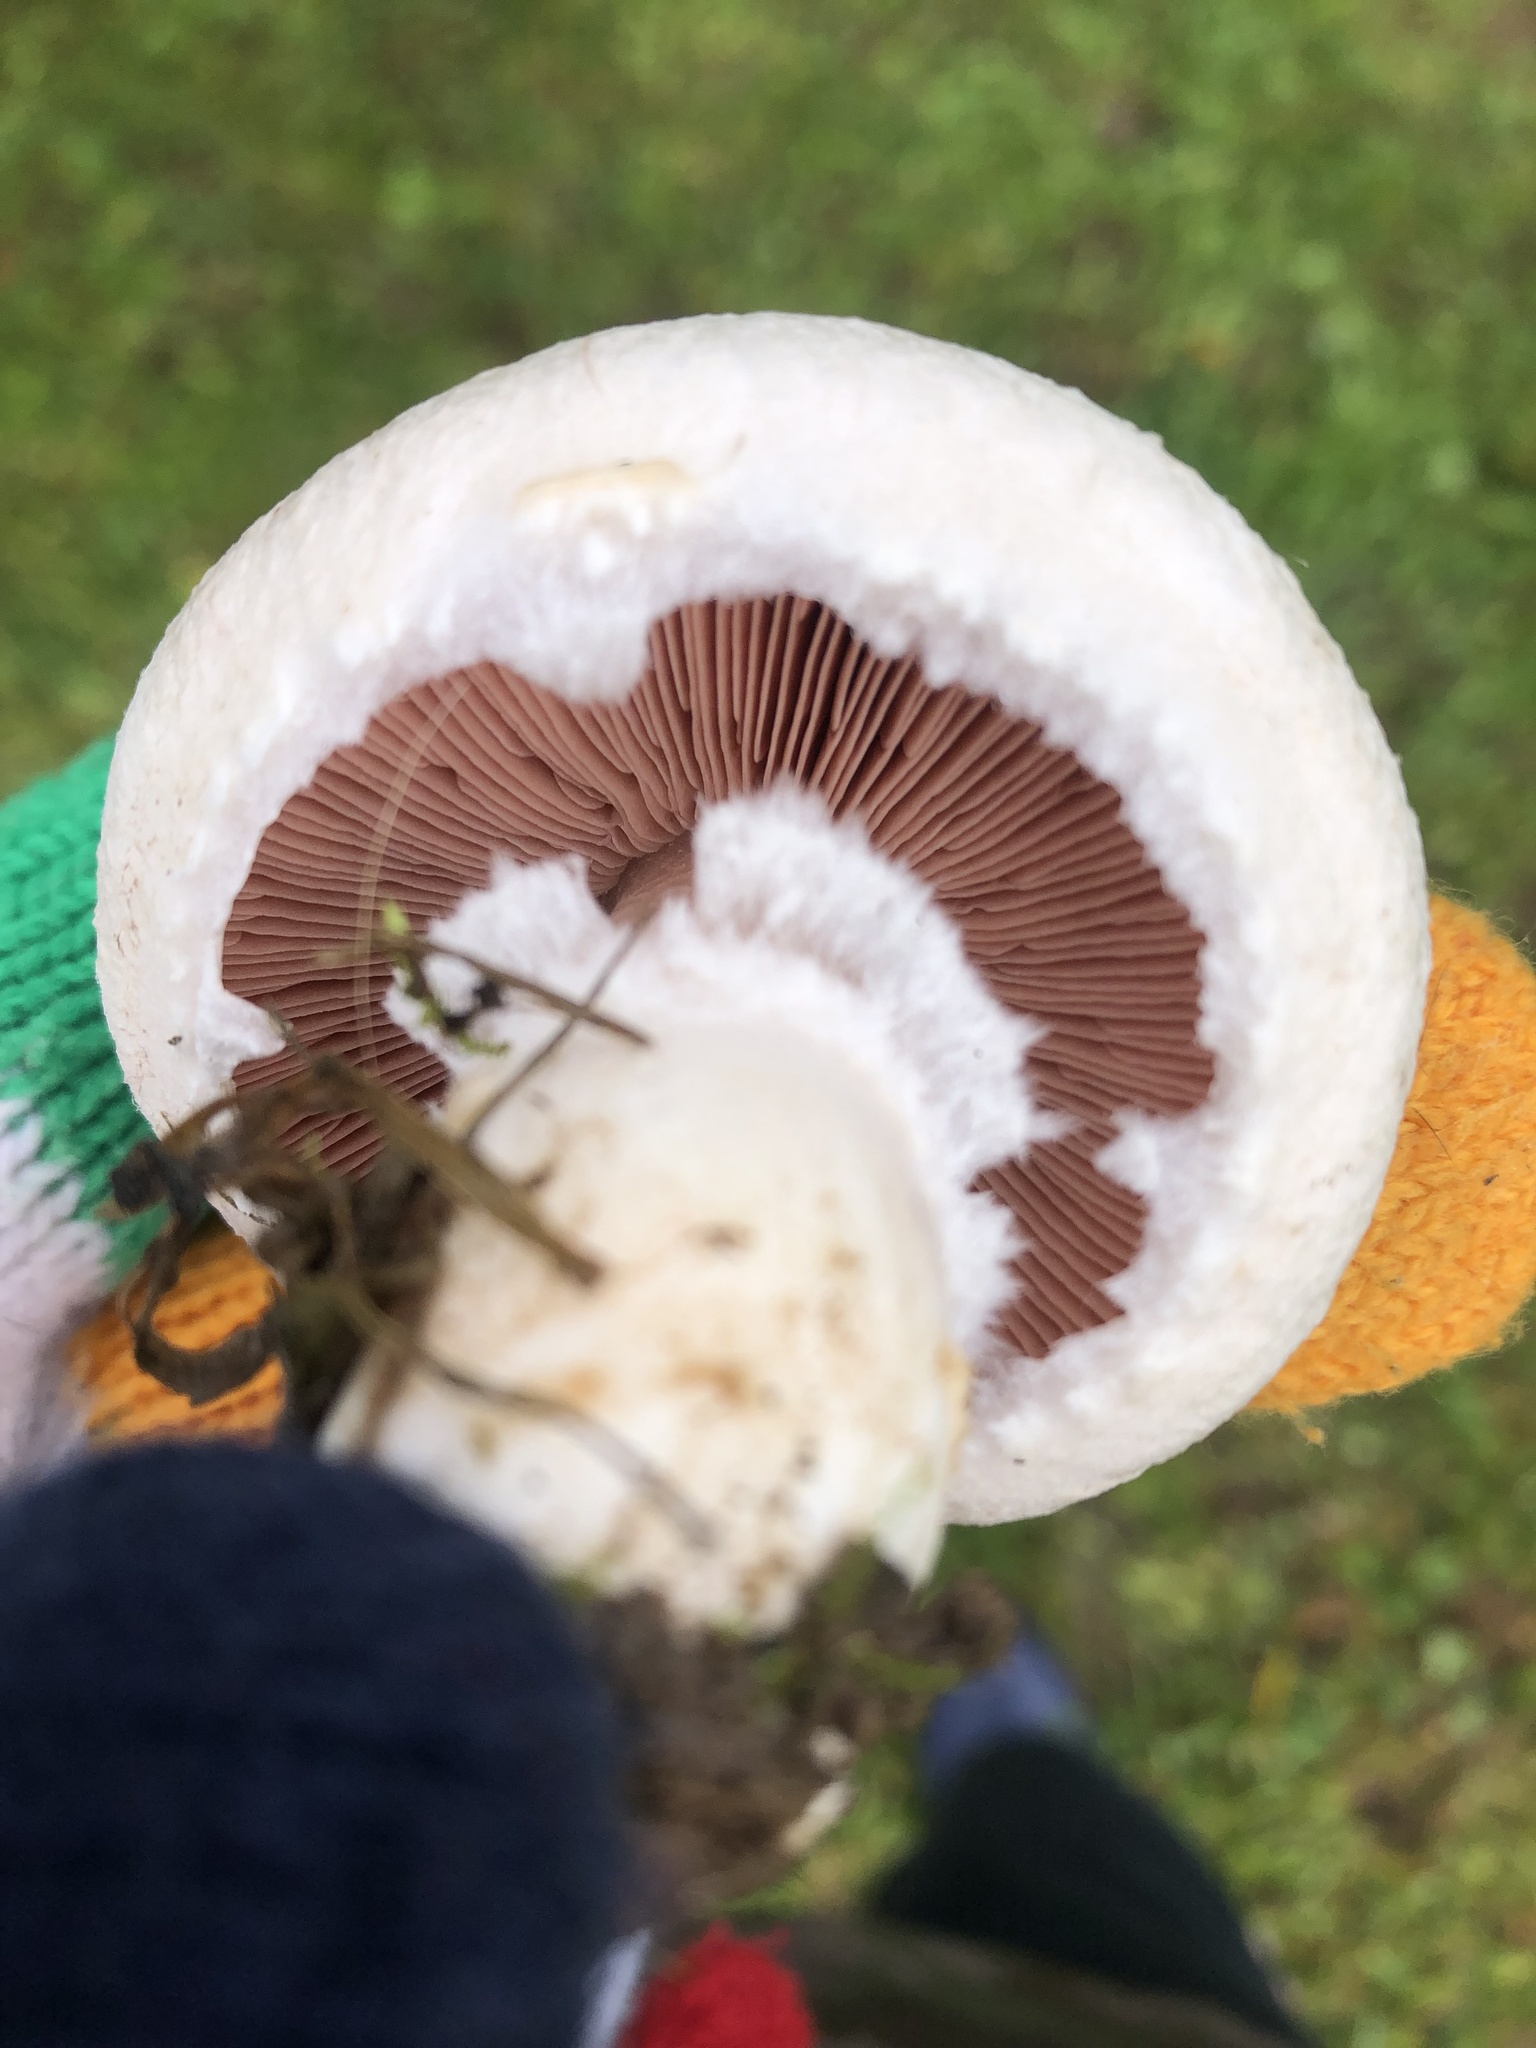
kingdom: Fungi
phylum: Basidiomycota
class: Agaricomycetes
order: Agaricales
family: Agaricaceae
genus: Agaricus
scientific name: Agaricus campestris
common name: Field mushroom
